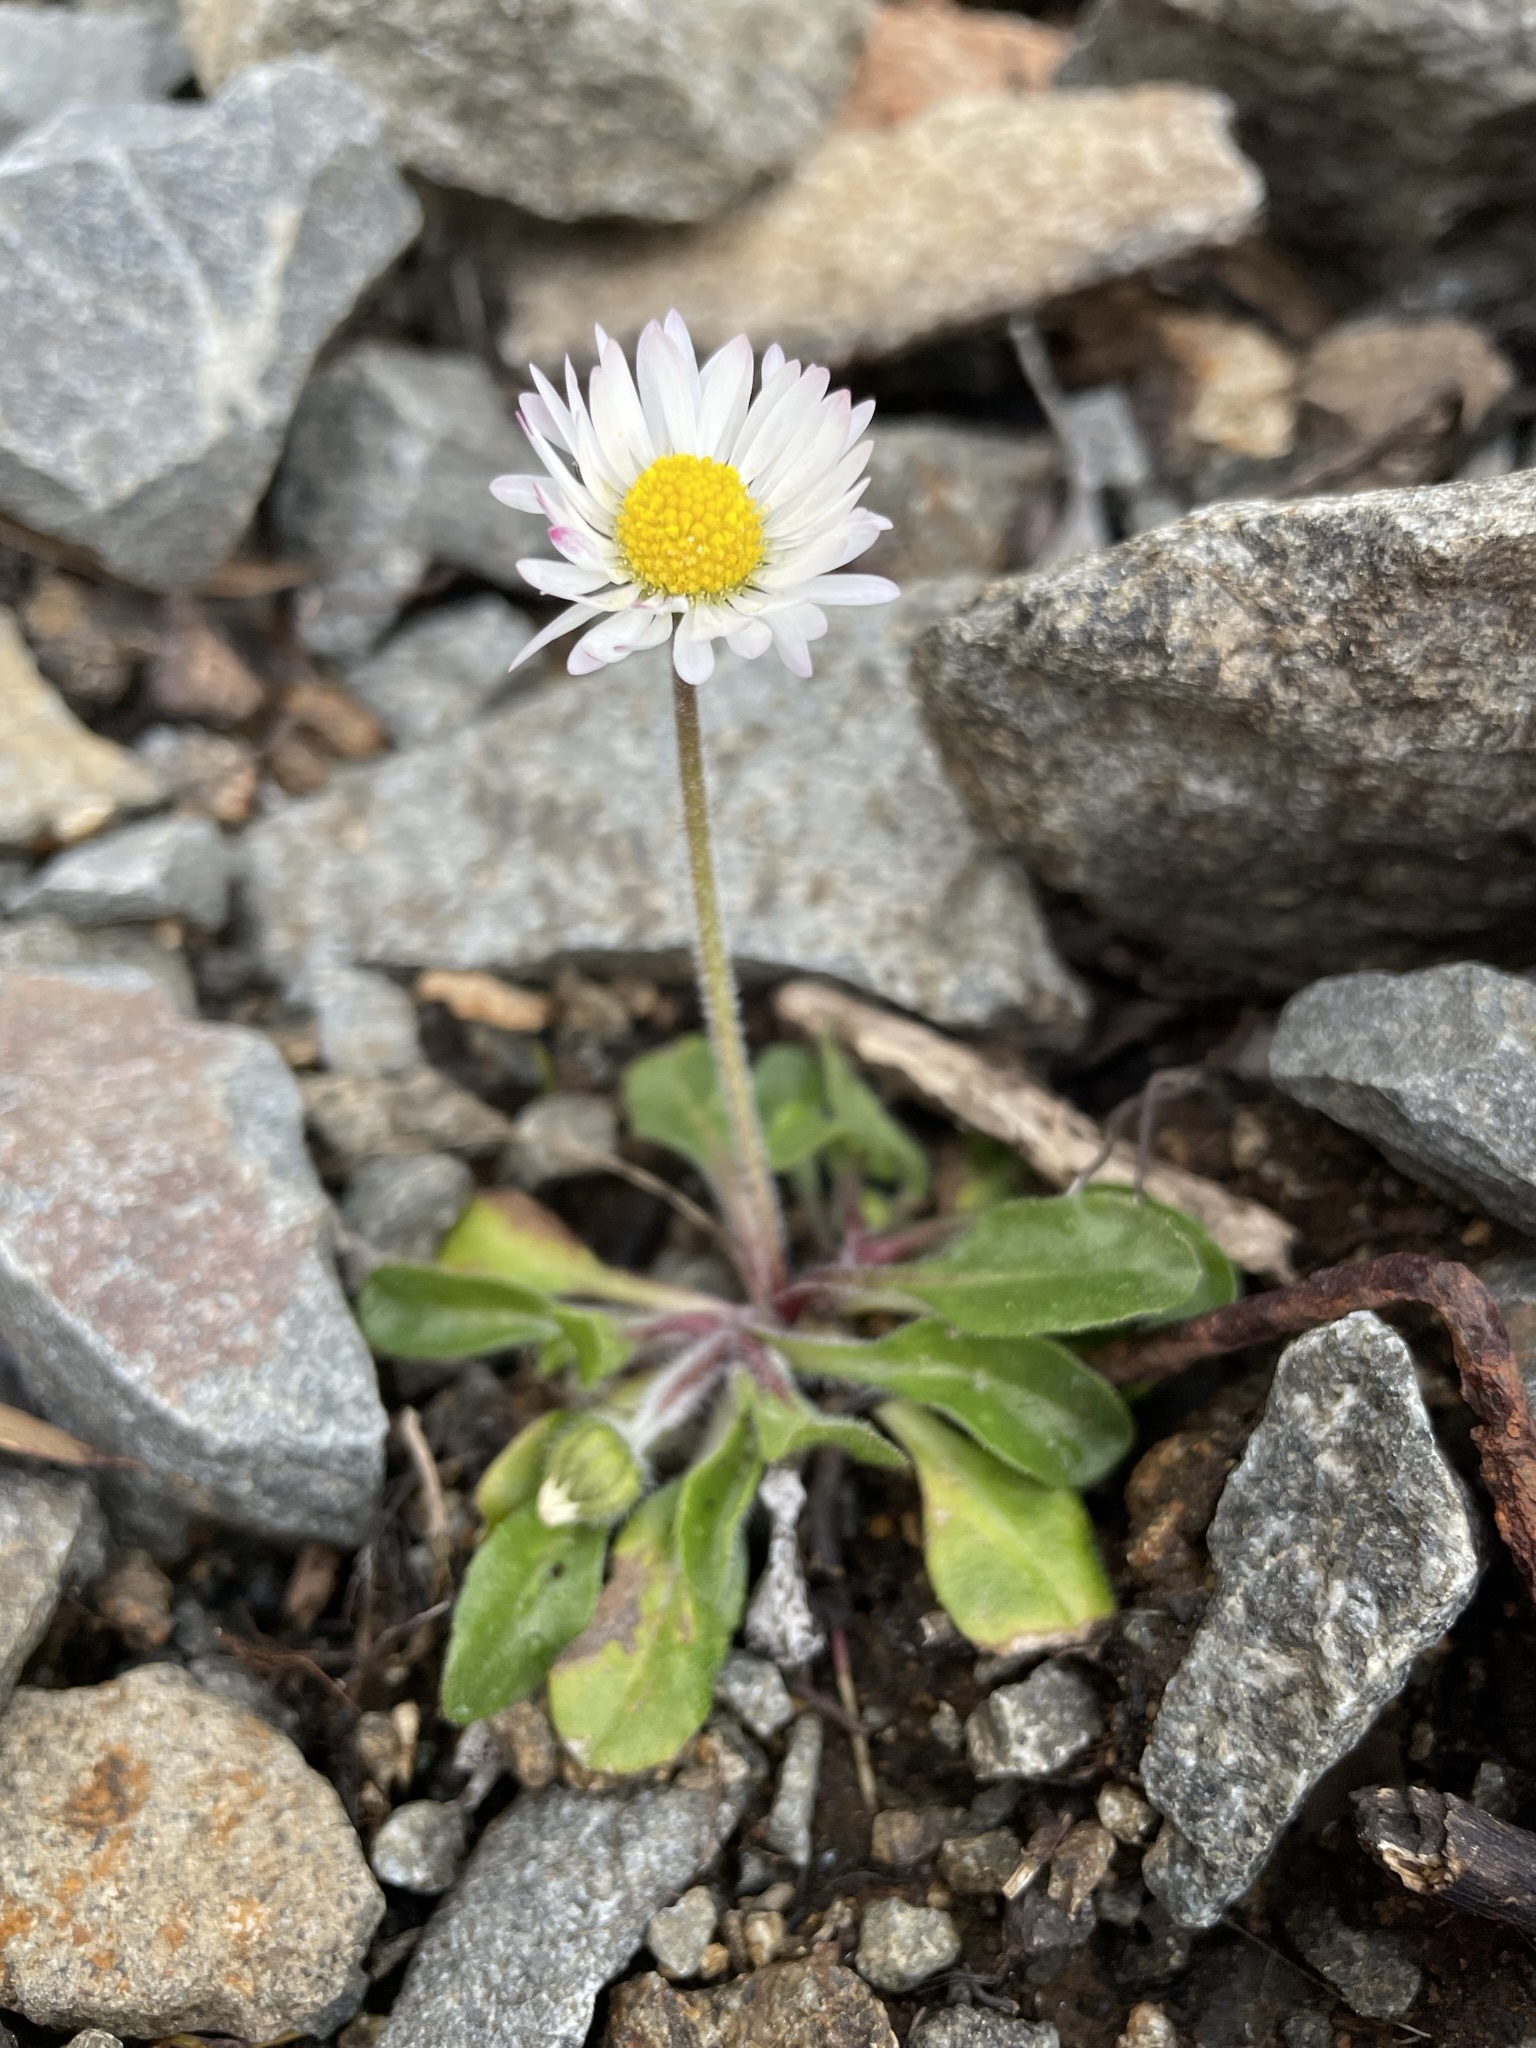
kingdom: Plantae
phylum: Tracheophyta
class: Magnoliopsida
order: Asterales
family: Asteraceae
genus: Bellis
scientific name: Bellis perennis
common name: Lawndaisy
